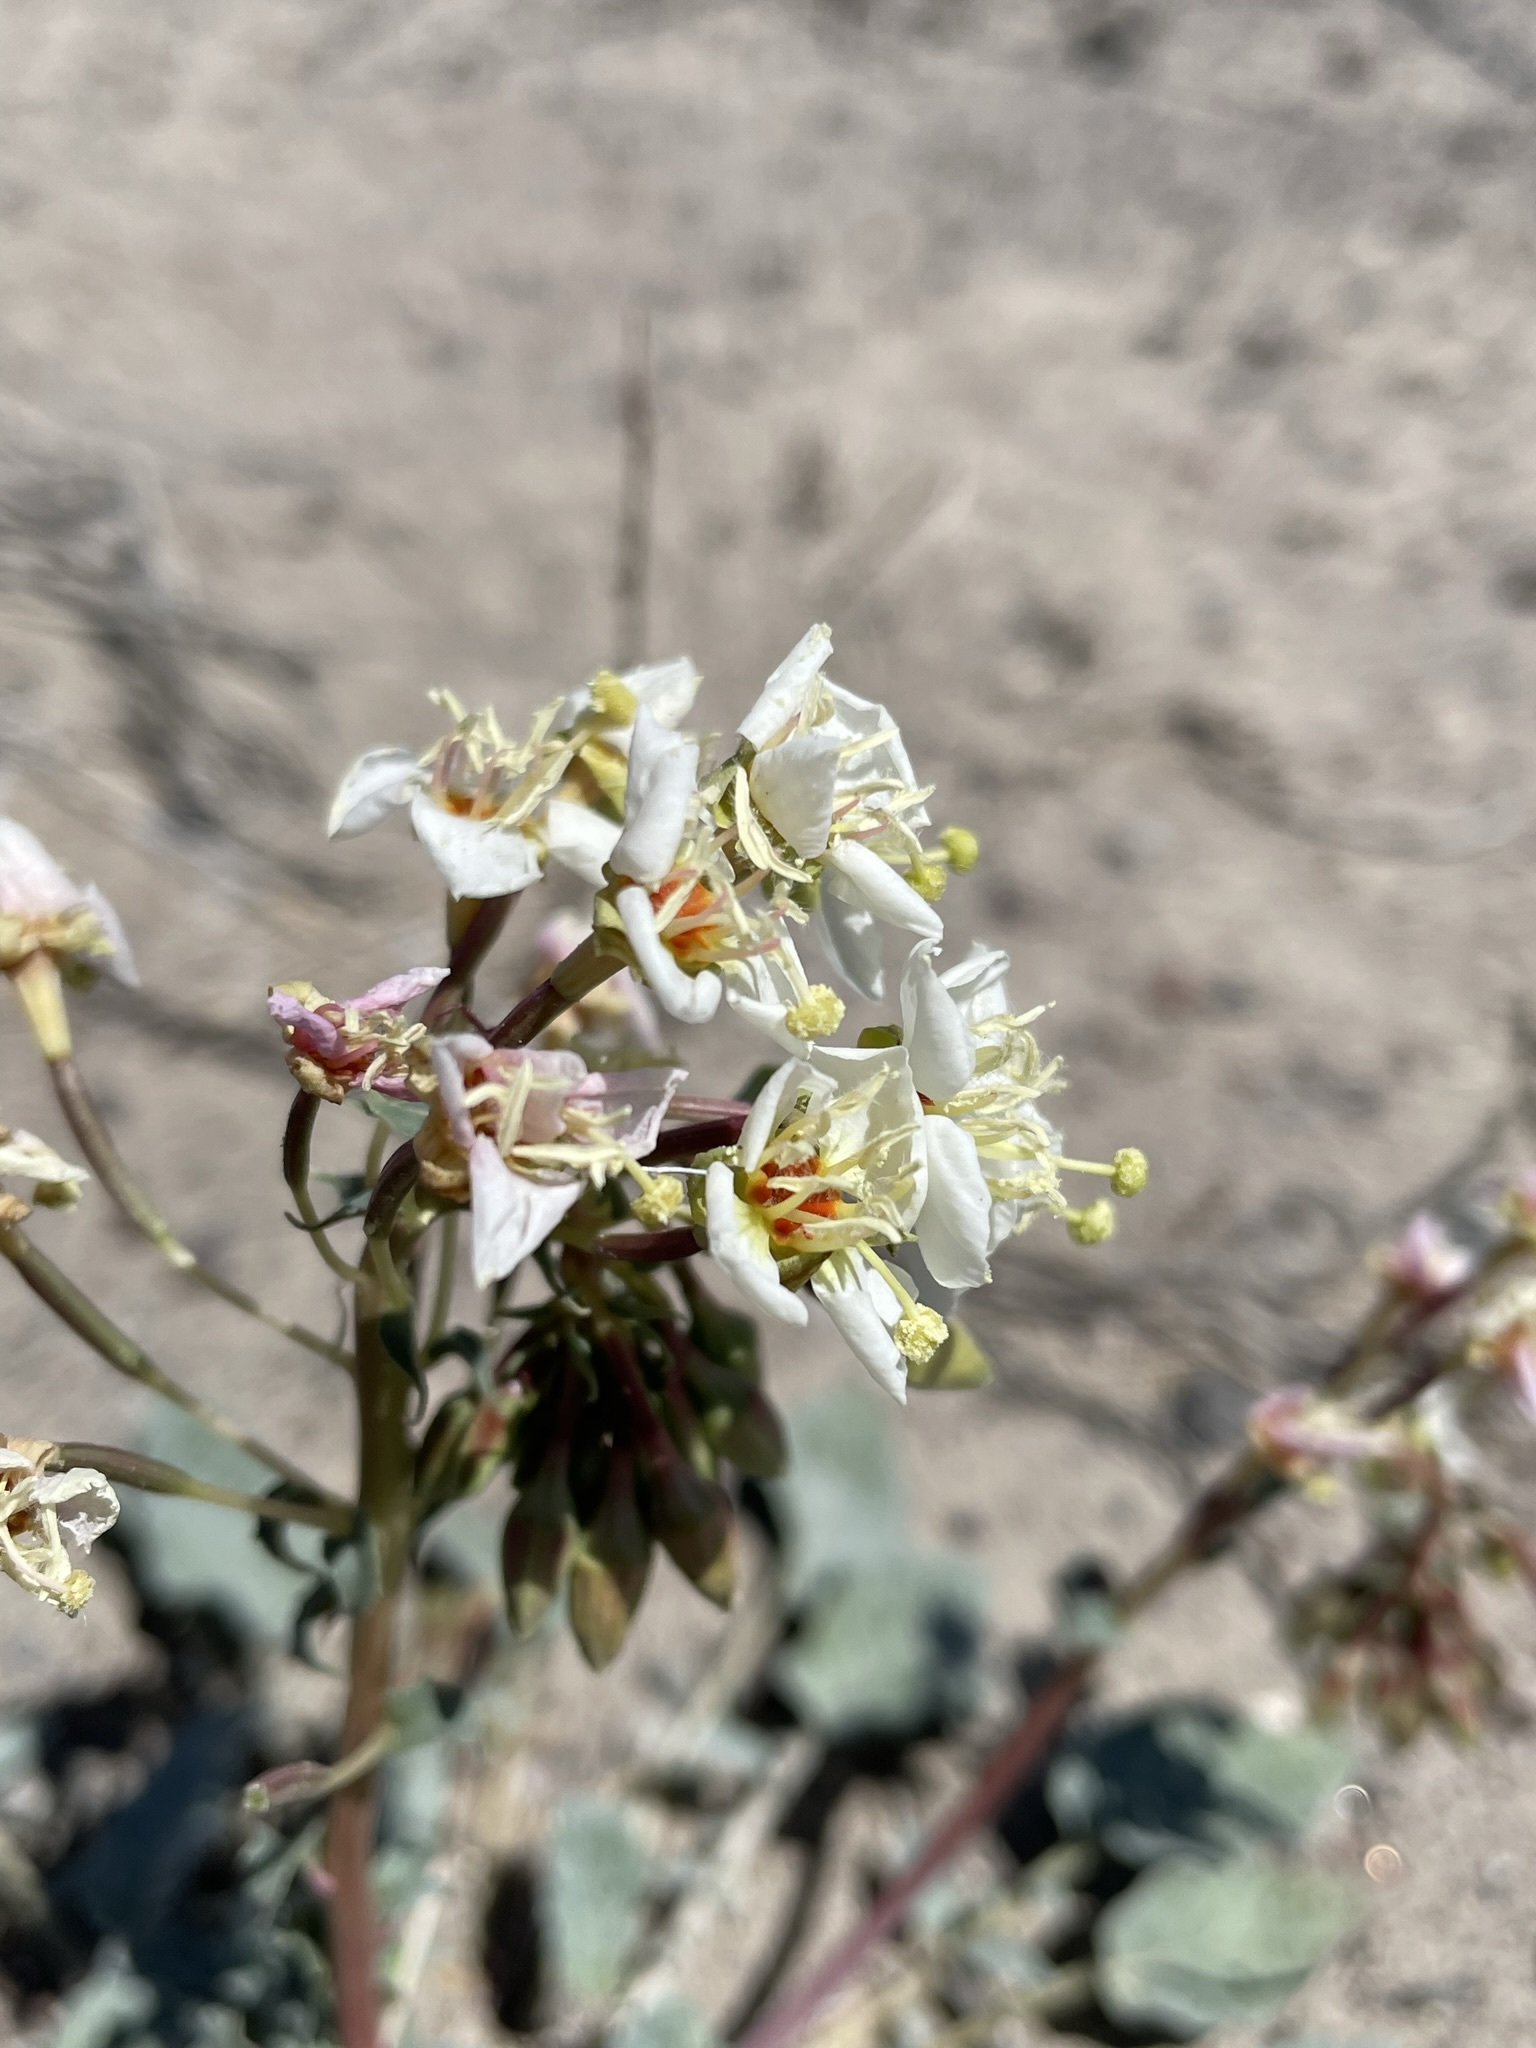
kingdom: Plantae
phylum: Tracheophyta
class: Magnoliopsida
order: Myrtales
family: Onagraceae
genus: Chylismia
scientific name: Chylismia claviformis
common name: Browneyes
